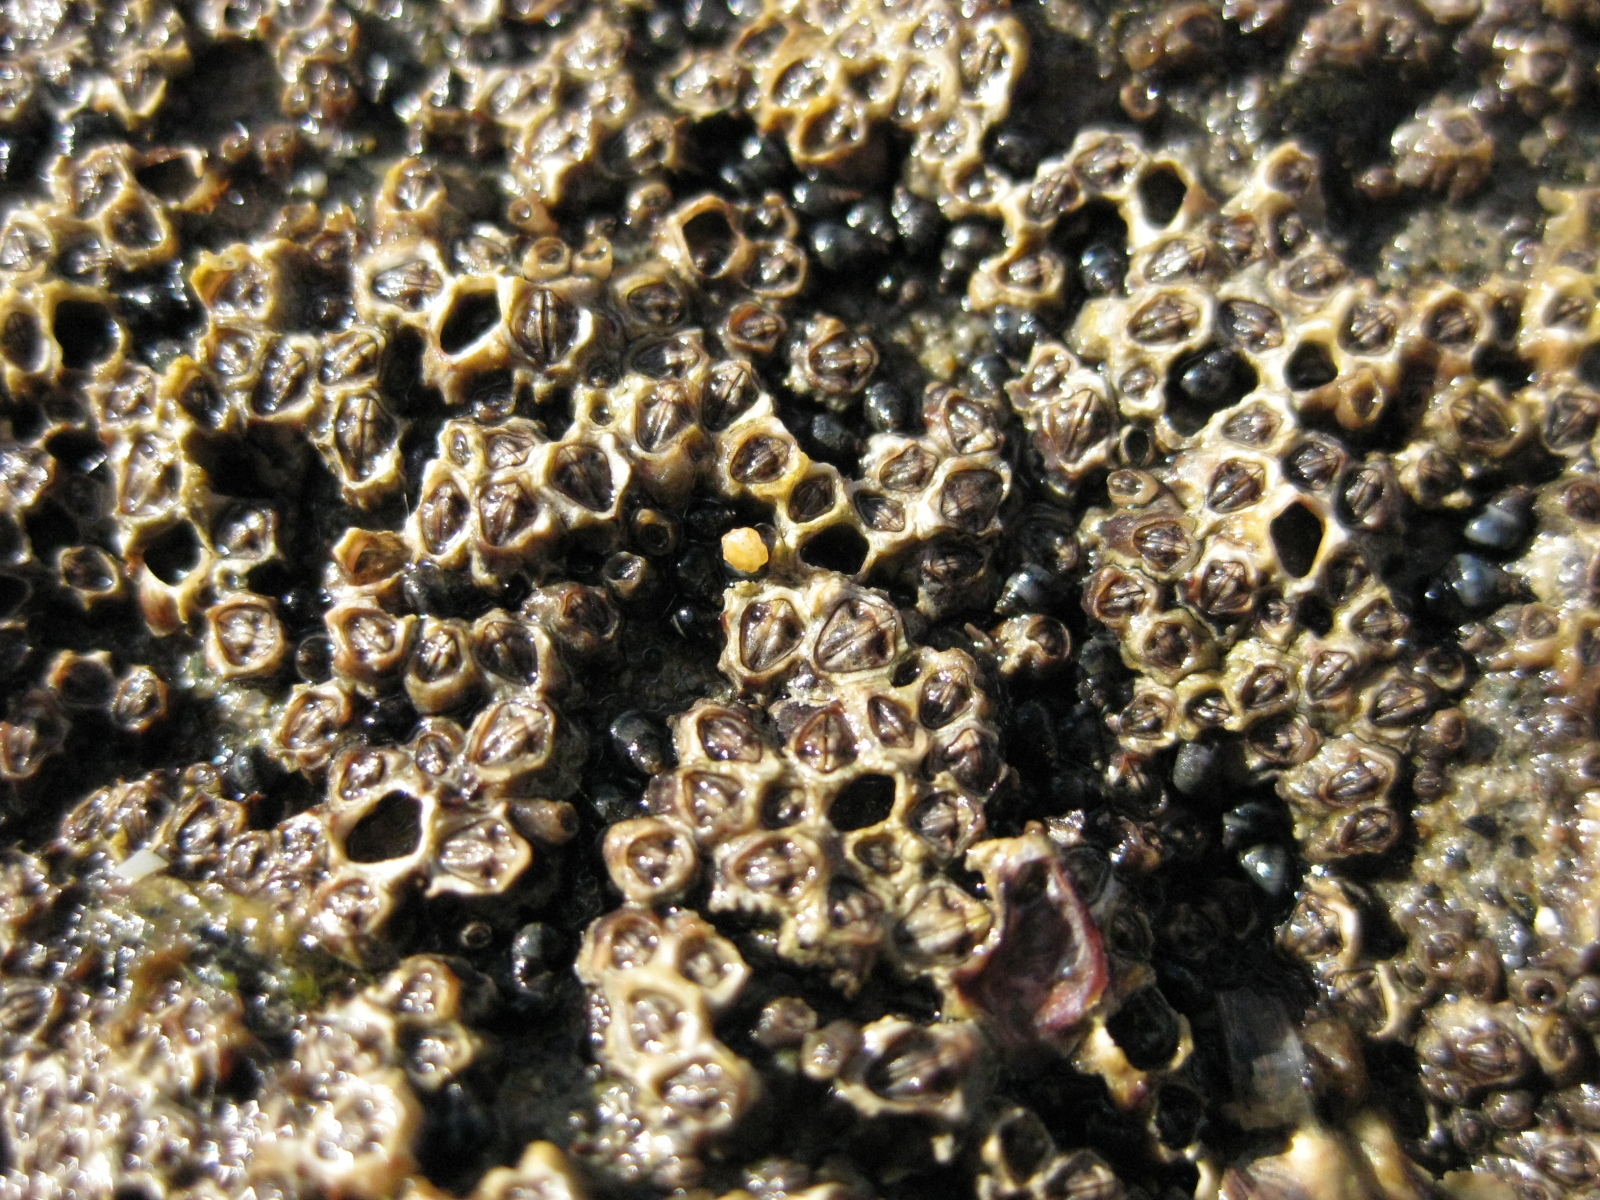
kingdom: Animalia
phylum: Arthropoda
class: Maxillopoda
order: Sessilia
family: Chthamalidae
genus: Chamaesipho
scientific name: Chamaesipho columna
